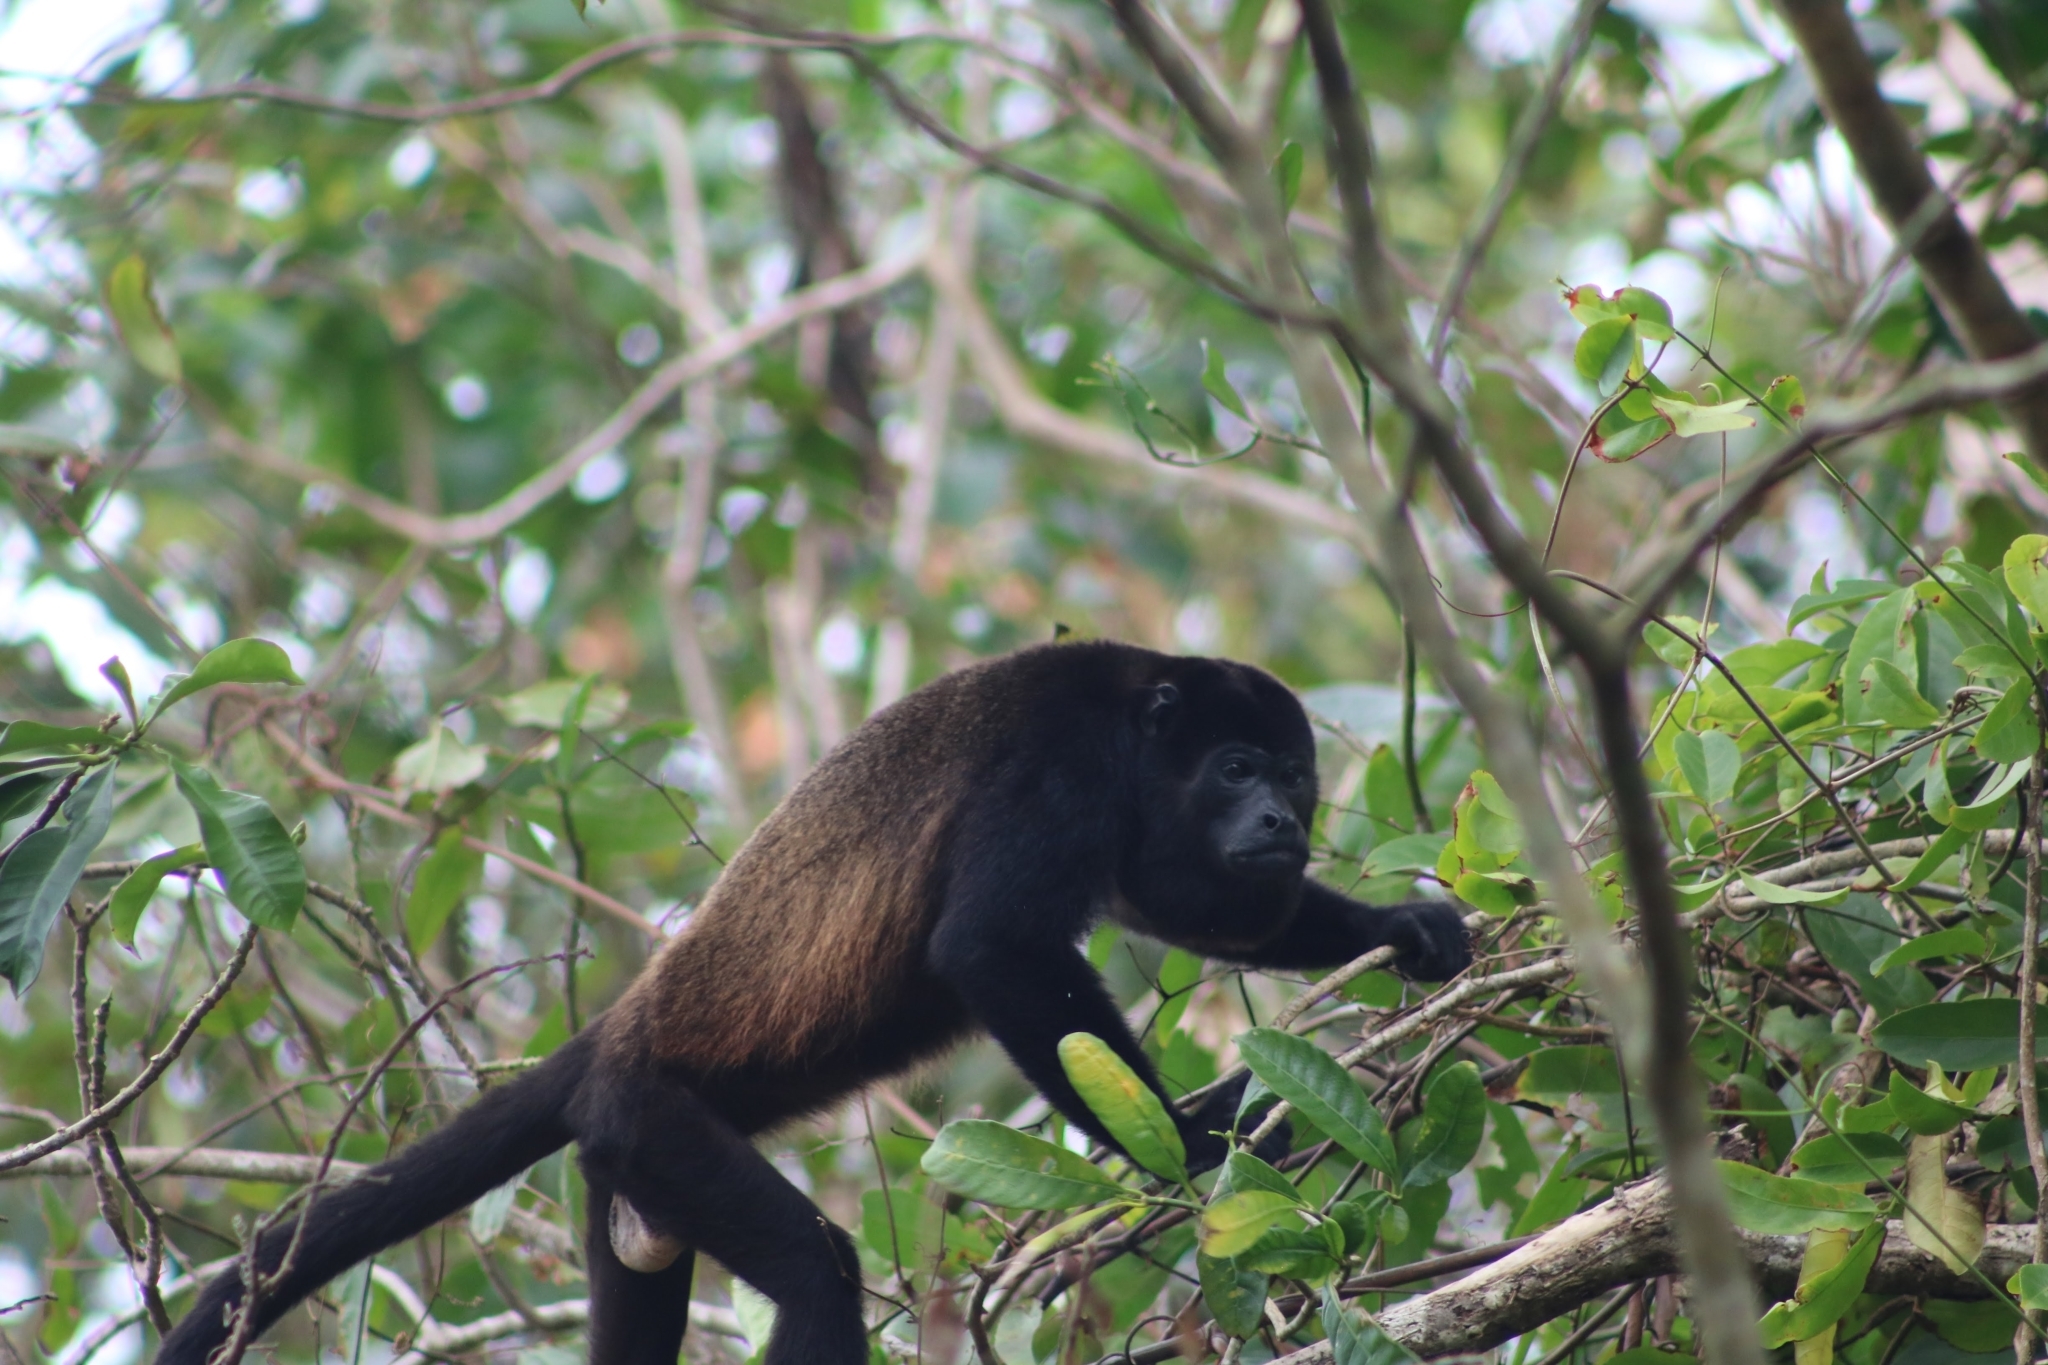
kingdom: Animalia
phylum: Chordata
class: Mammalia
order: Primates
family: Atelidae
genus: Alouatta
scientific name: Alouatta palliata
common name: Mantled howler
